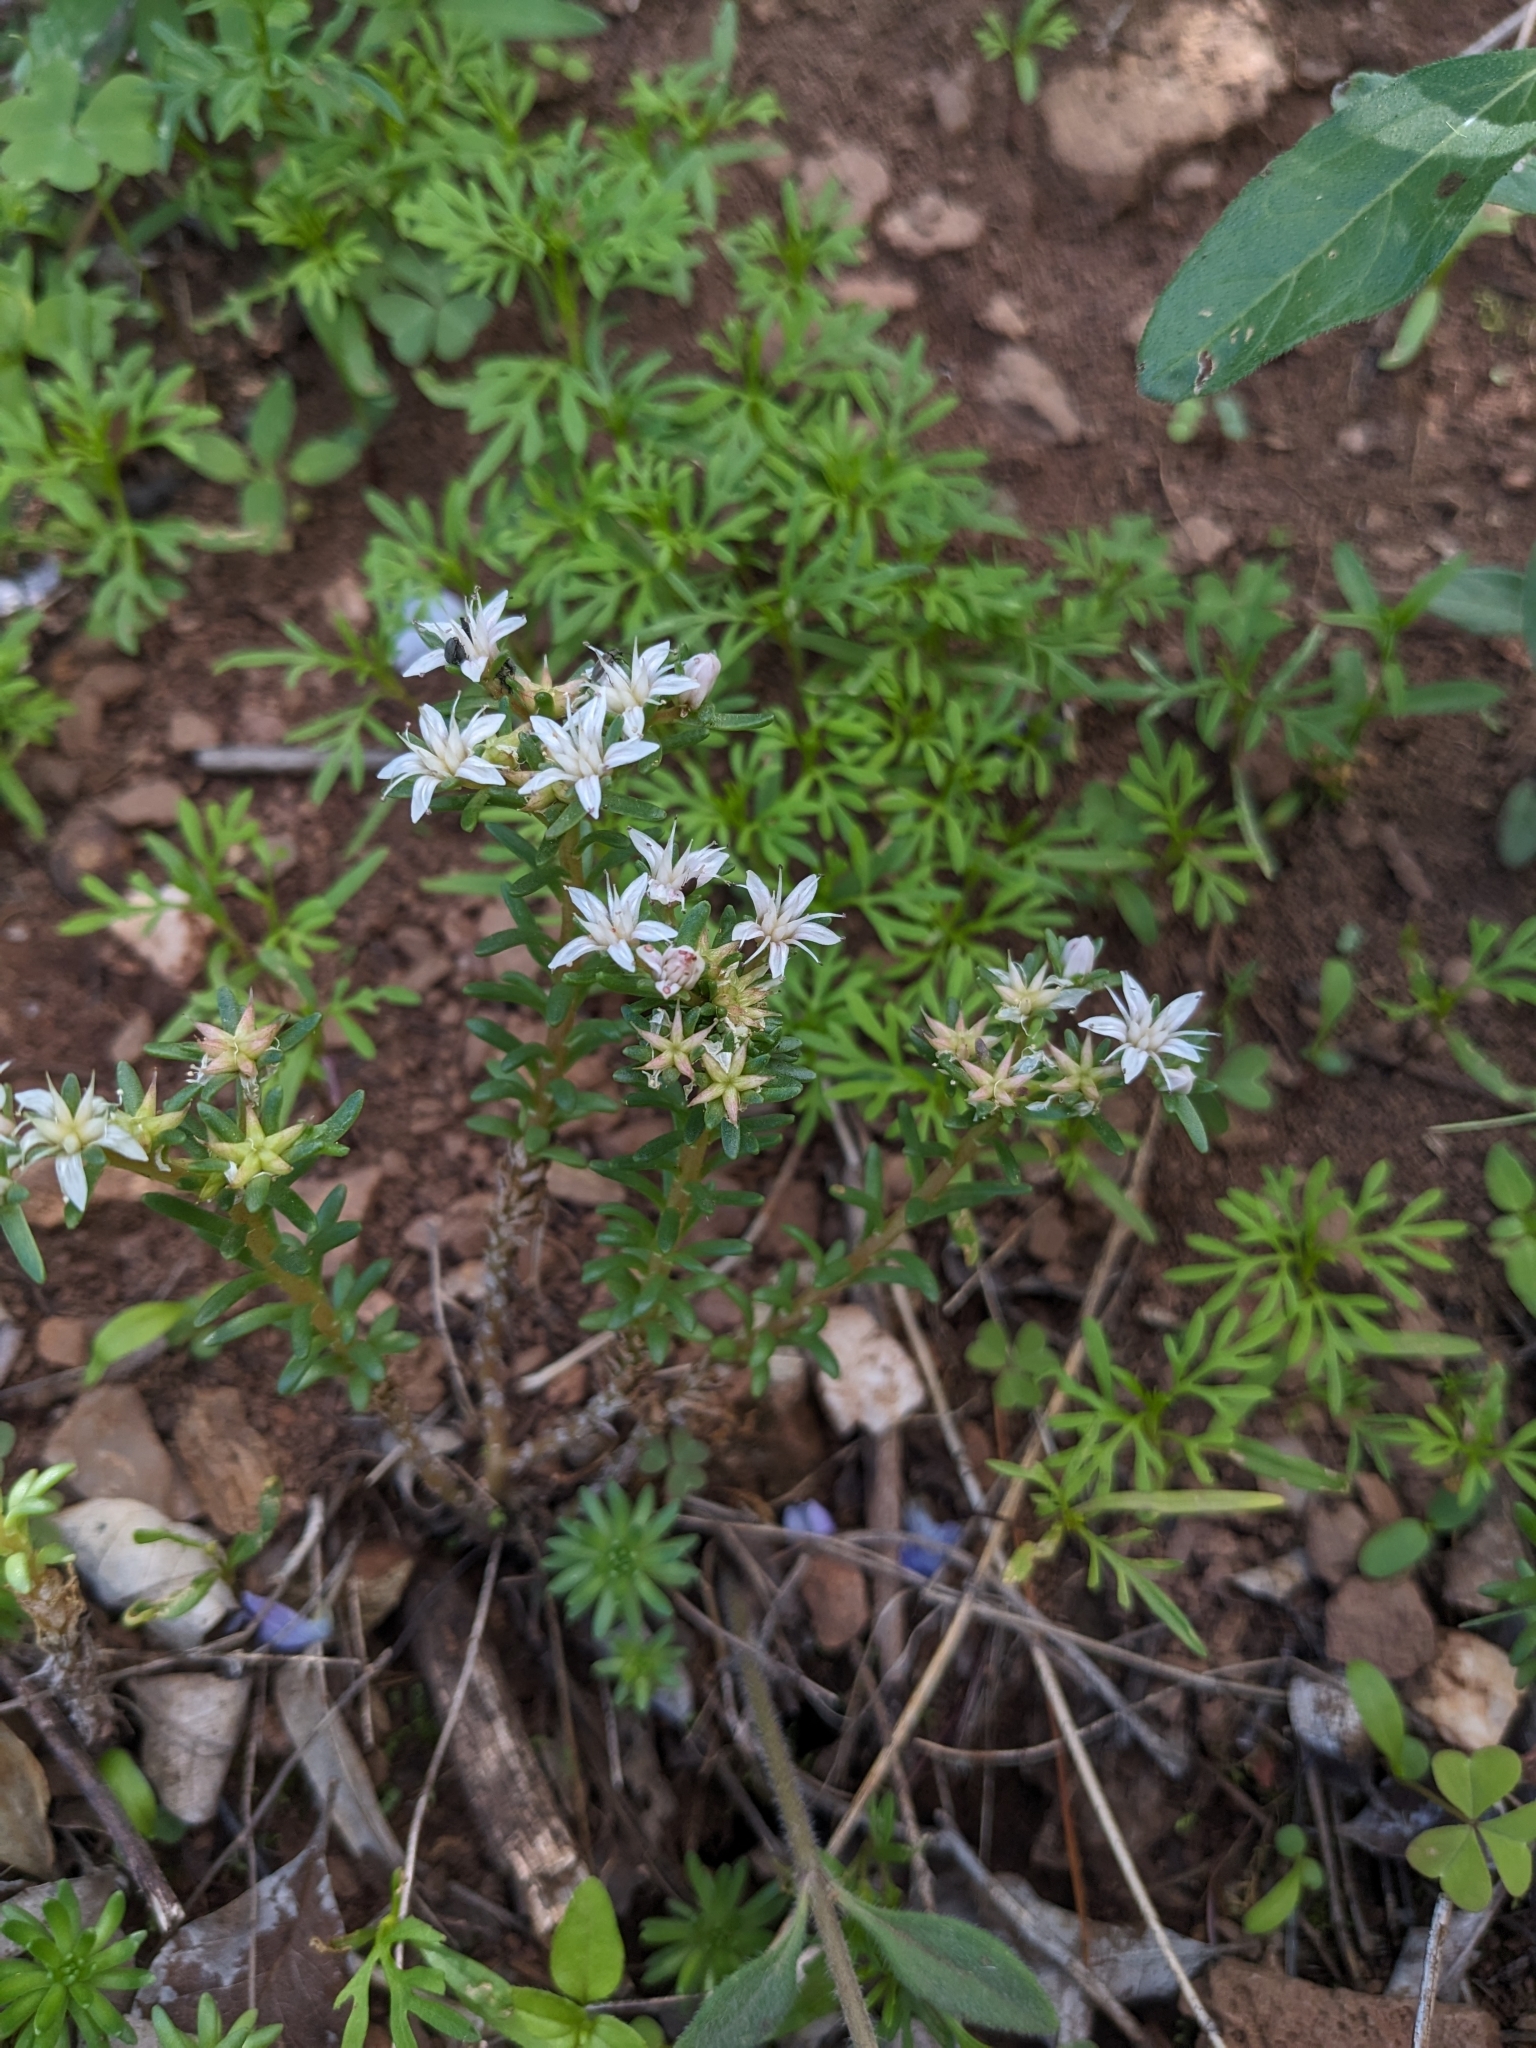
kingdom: Plantae
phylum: Tracheophyta
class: Magnoliopsida
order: Saxifragales
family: Crassulaceae
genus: Sedum
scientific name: Sedum stelliforme
